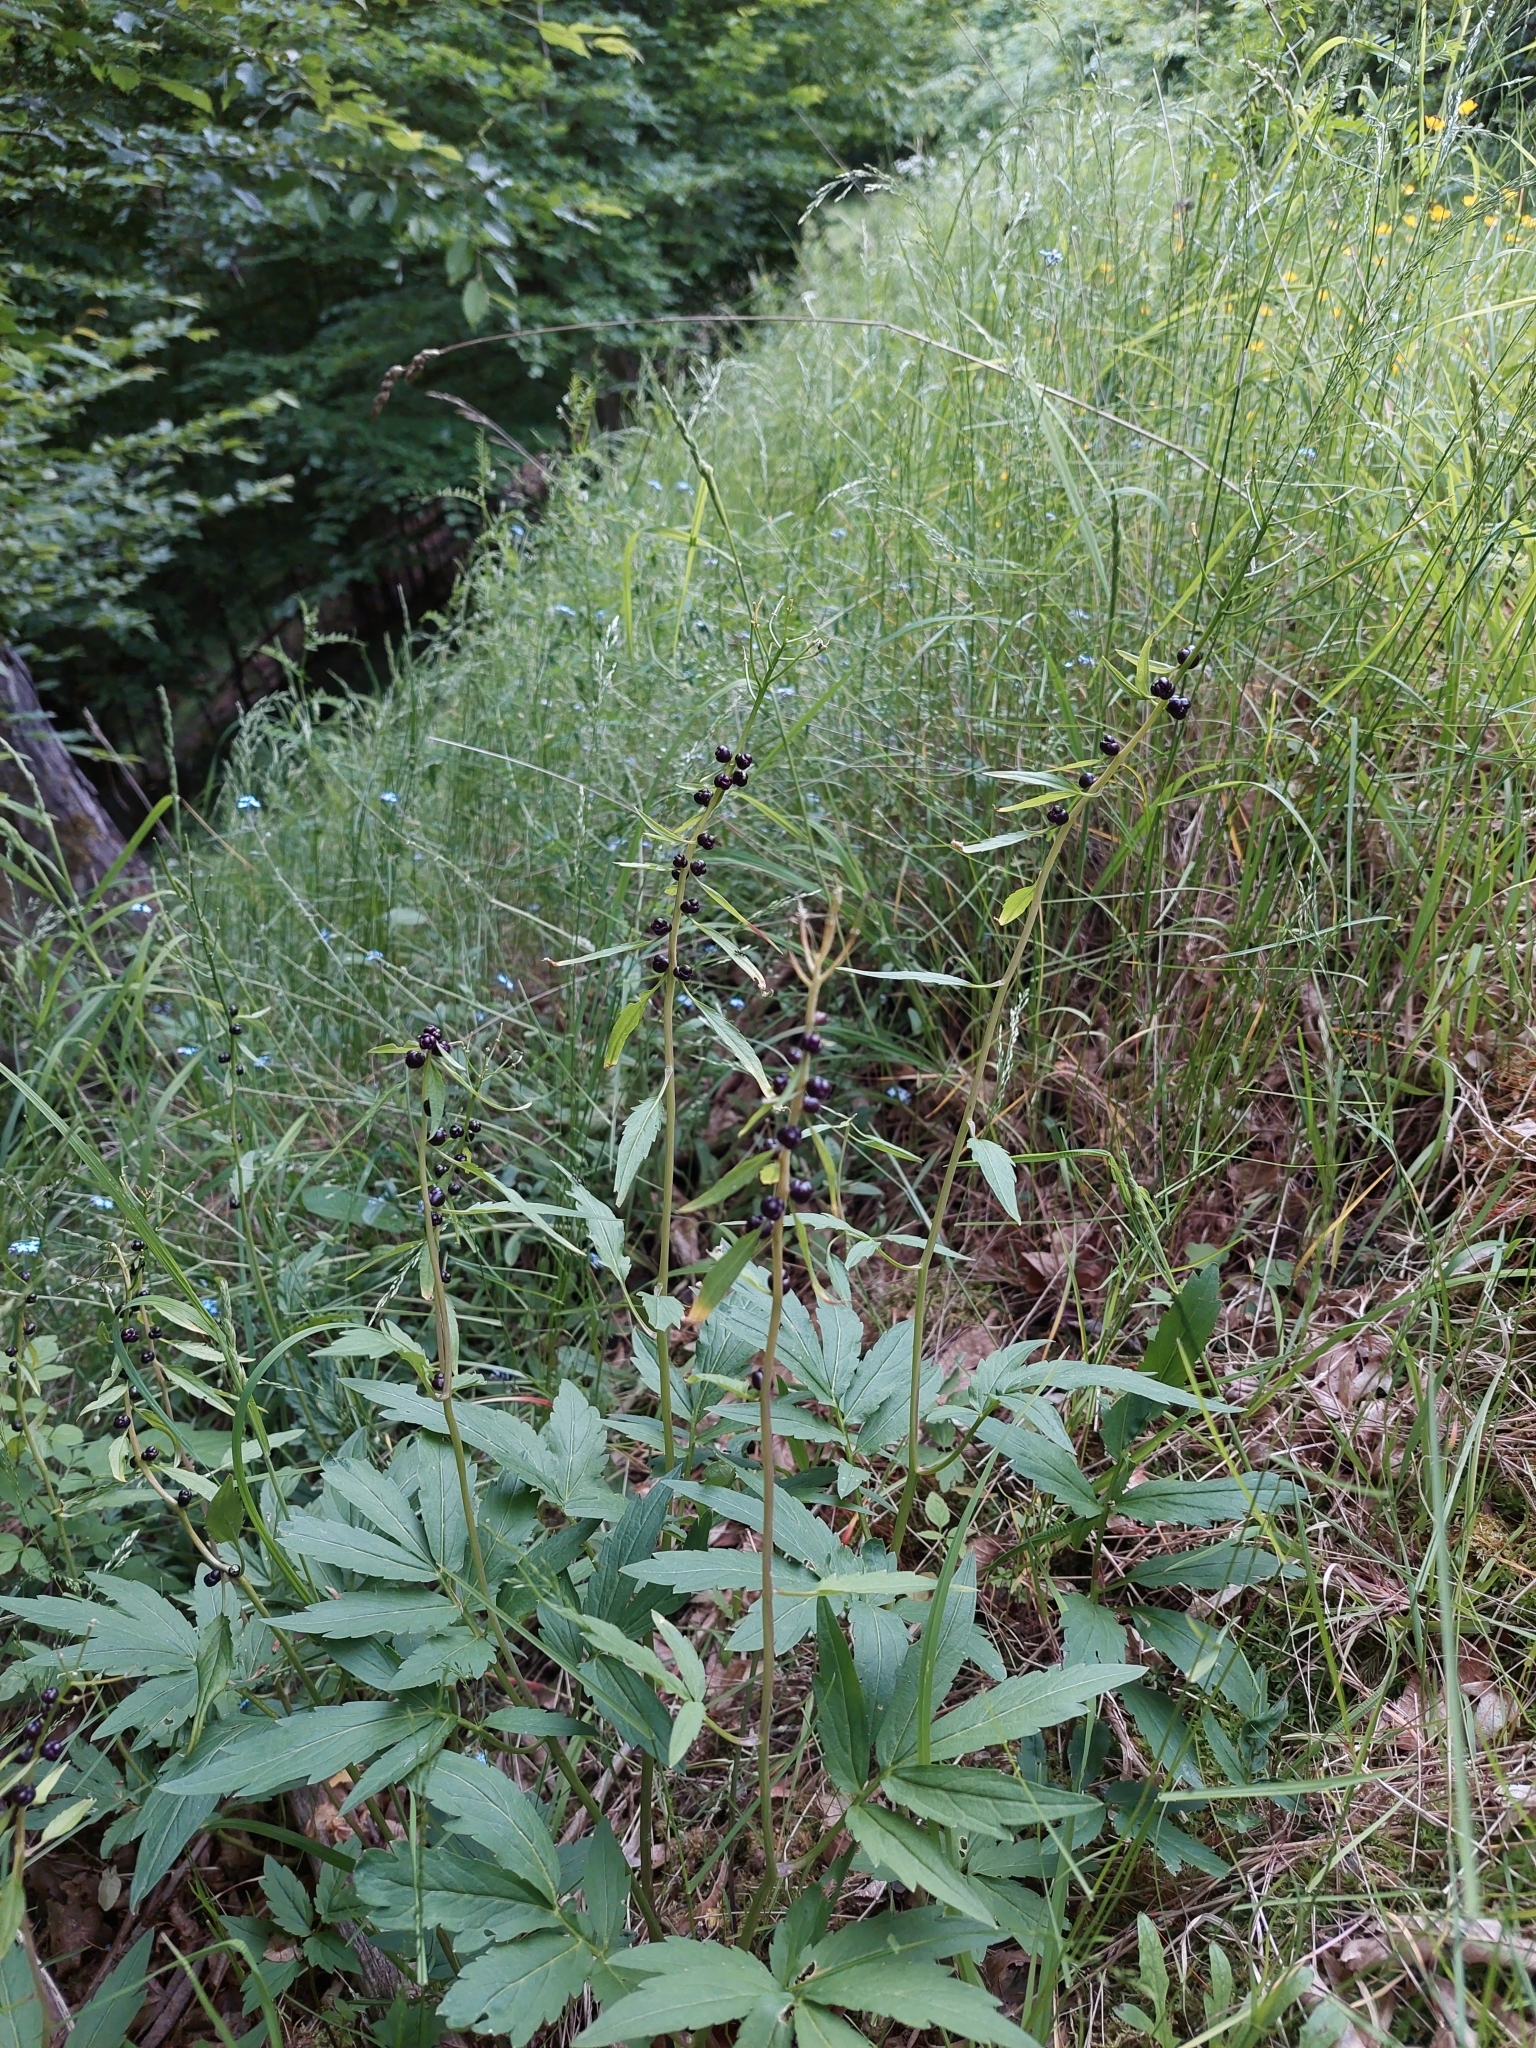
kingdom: Plantae
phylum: Tracheophyta
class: Magnoliopsida
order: Brassicales
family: Brassicaceae
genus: Cardamine
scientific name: Cardamine bulbifera
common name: Coralroot bittercress
